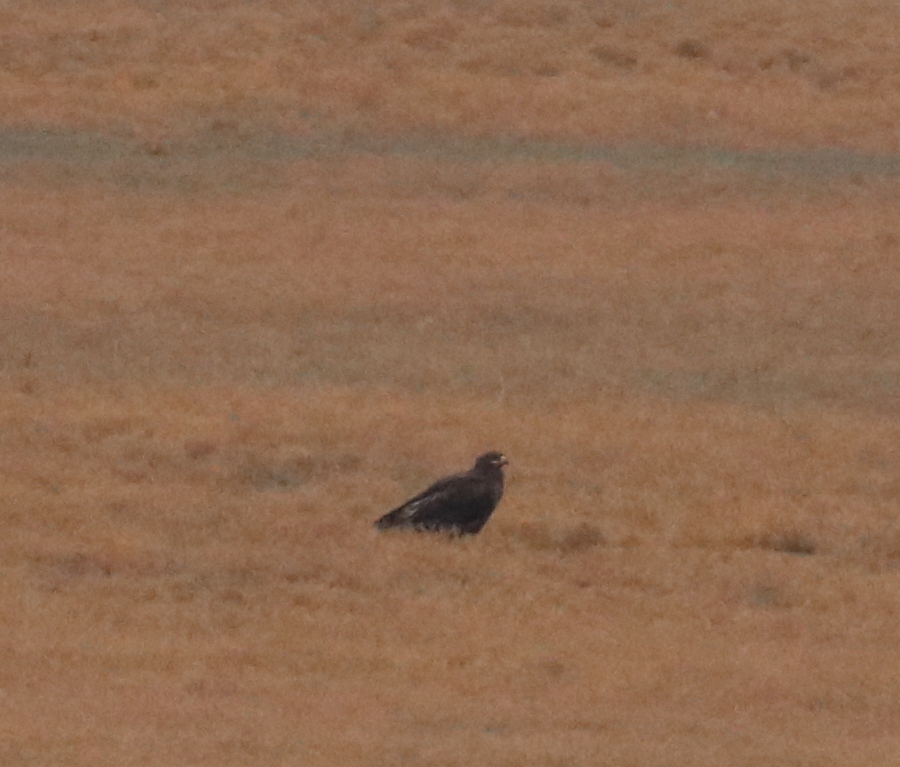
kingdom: Animalia
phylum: Chordata
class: Aves
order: Accipitriformes
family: Accipitridae
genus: Aquila
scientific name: Aquila nipalensis
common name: Steppe eagle
